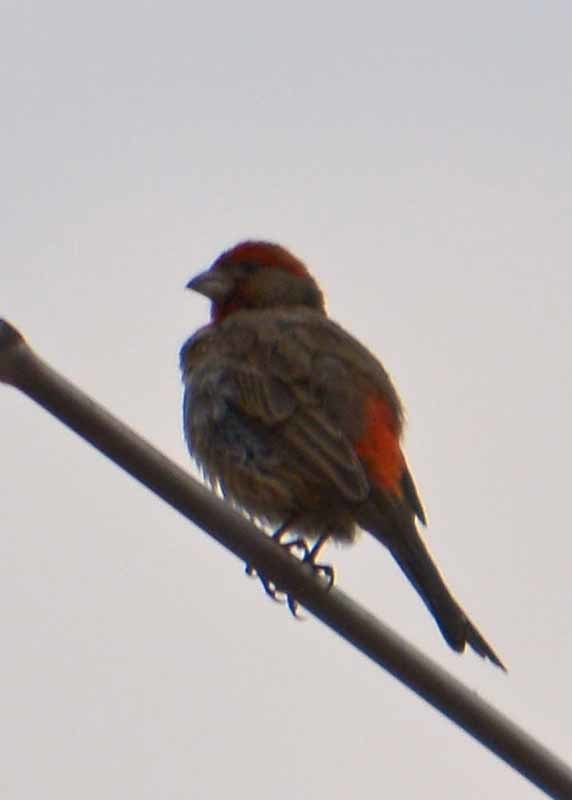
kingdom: Animalia
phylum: Chordata
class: Aves
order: Passeriformes
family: Fringillidae
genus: Haemorhous
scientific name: Haemorhous mexicanus
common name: House finch
